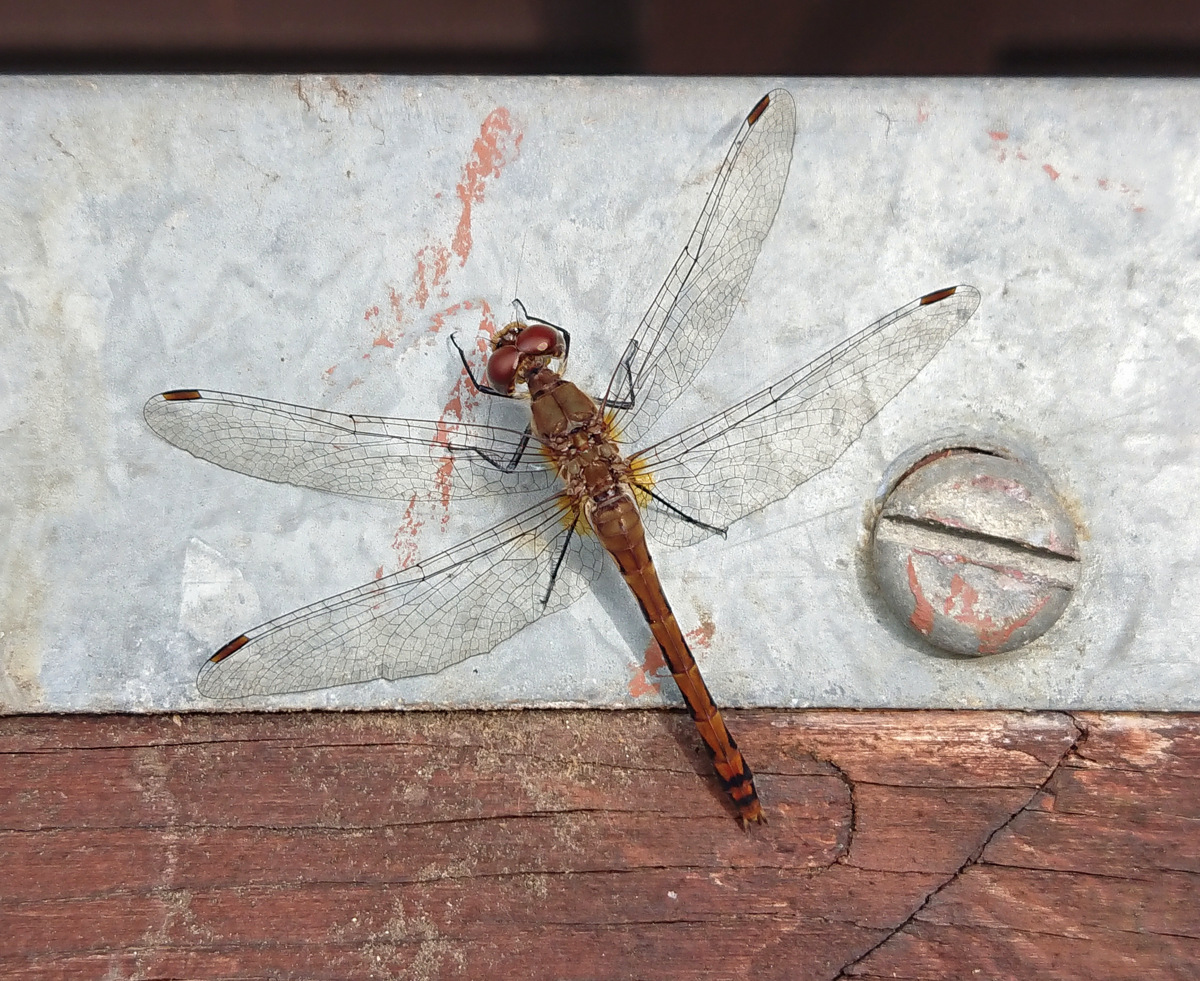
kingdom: Animalia
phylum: Arthropoda
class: Insecta
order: Odonata
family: Libellulidae
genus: Sympetrum
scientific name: Sympetrum internum
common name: Cherry-faced meadowhawk
